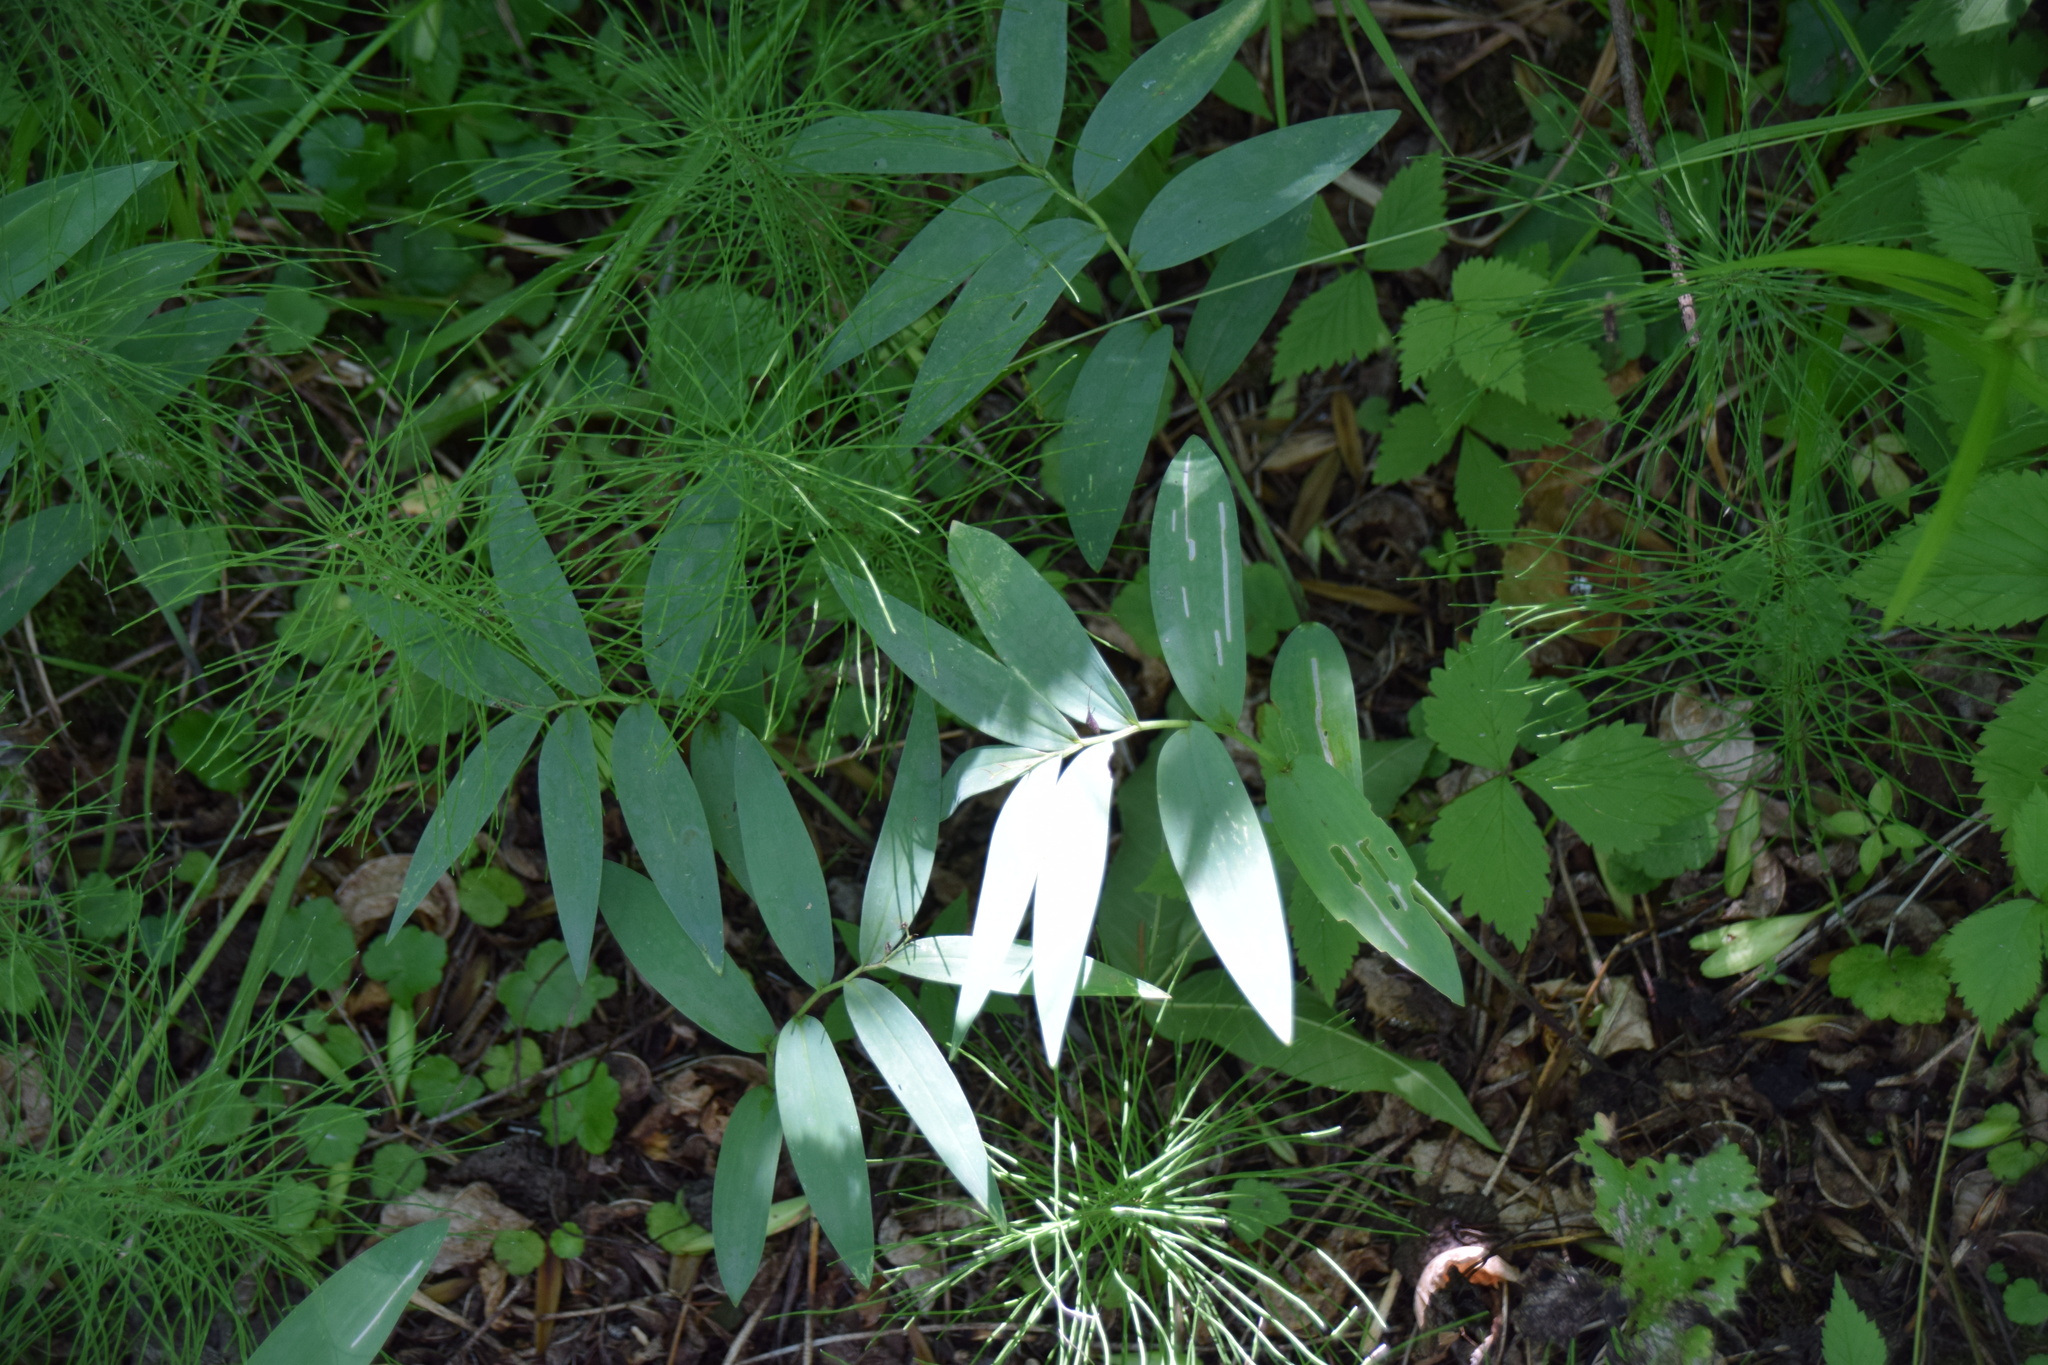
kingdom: Plantae
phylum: Tracheophyta
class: Liliopsida
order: Asparagales
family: Asparagaceae
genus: Maianthemum
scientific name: Maianthemum stellatum
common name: Little false solomon's seal
